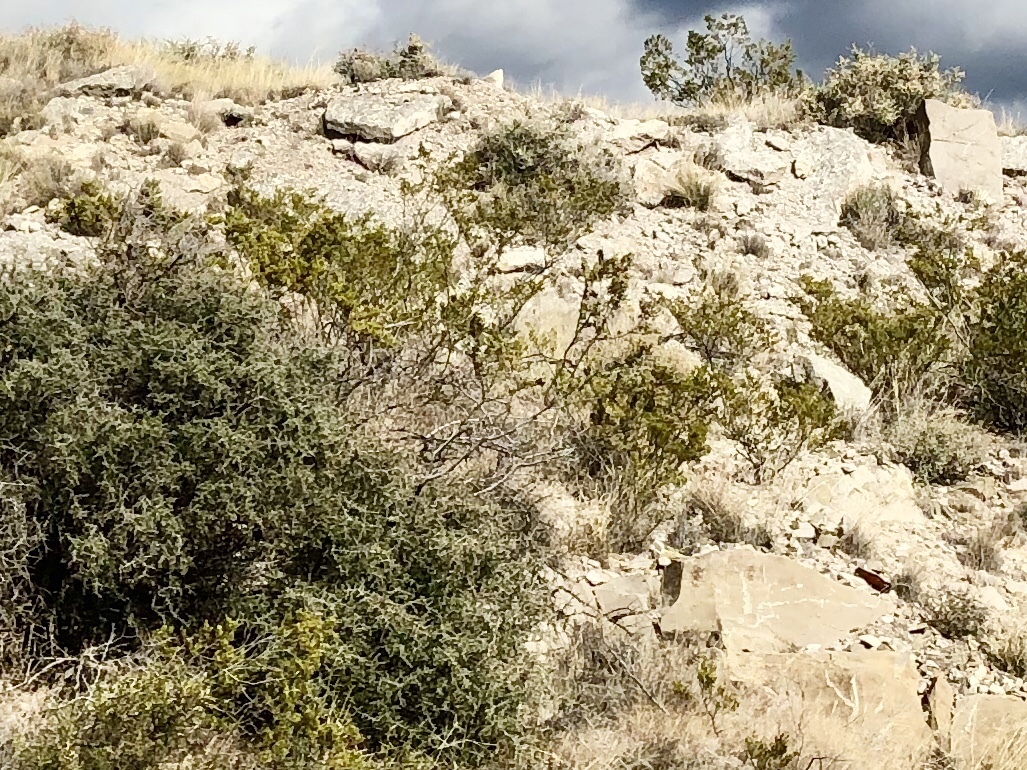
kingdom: Plantae
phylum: Tracheophyta
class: Magnoliopsida
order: Zygophyllales
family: Zygophyllaceae
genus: Larrea
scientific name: Larrea tridentata
